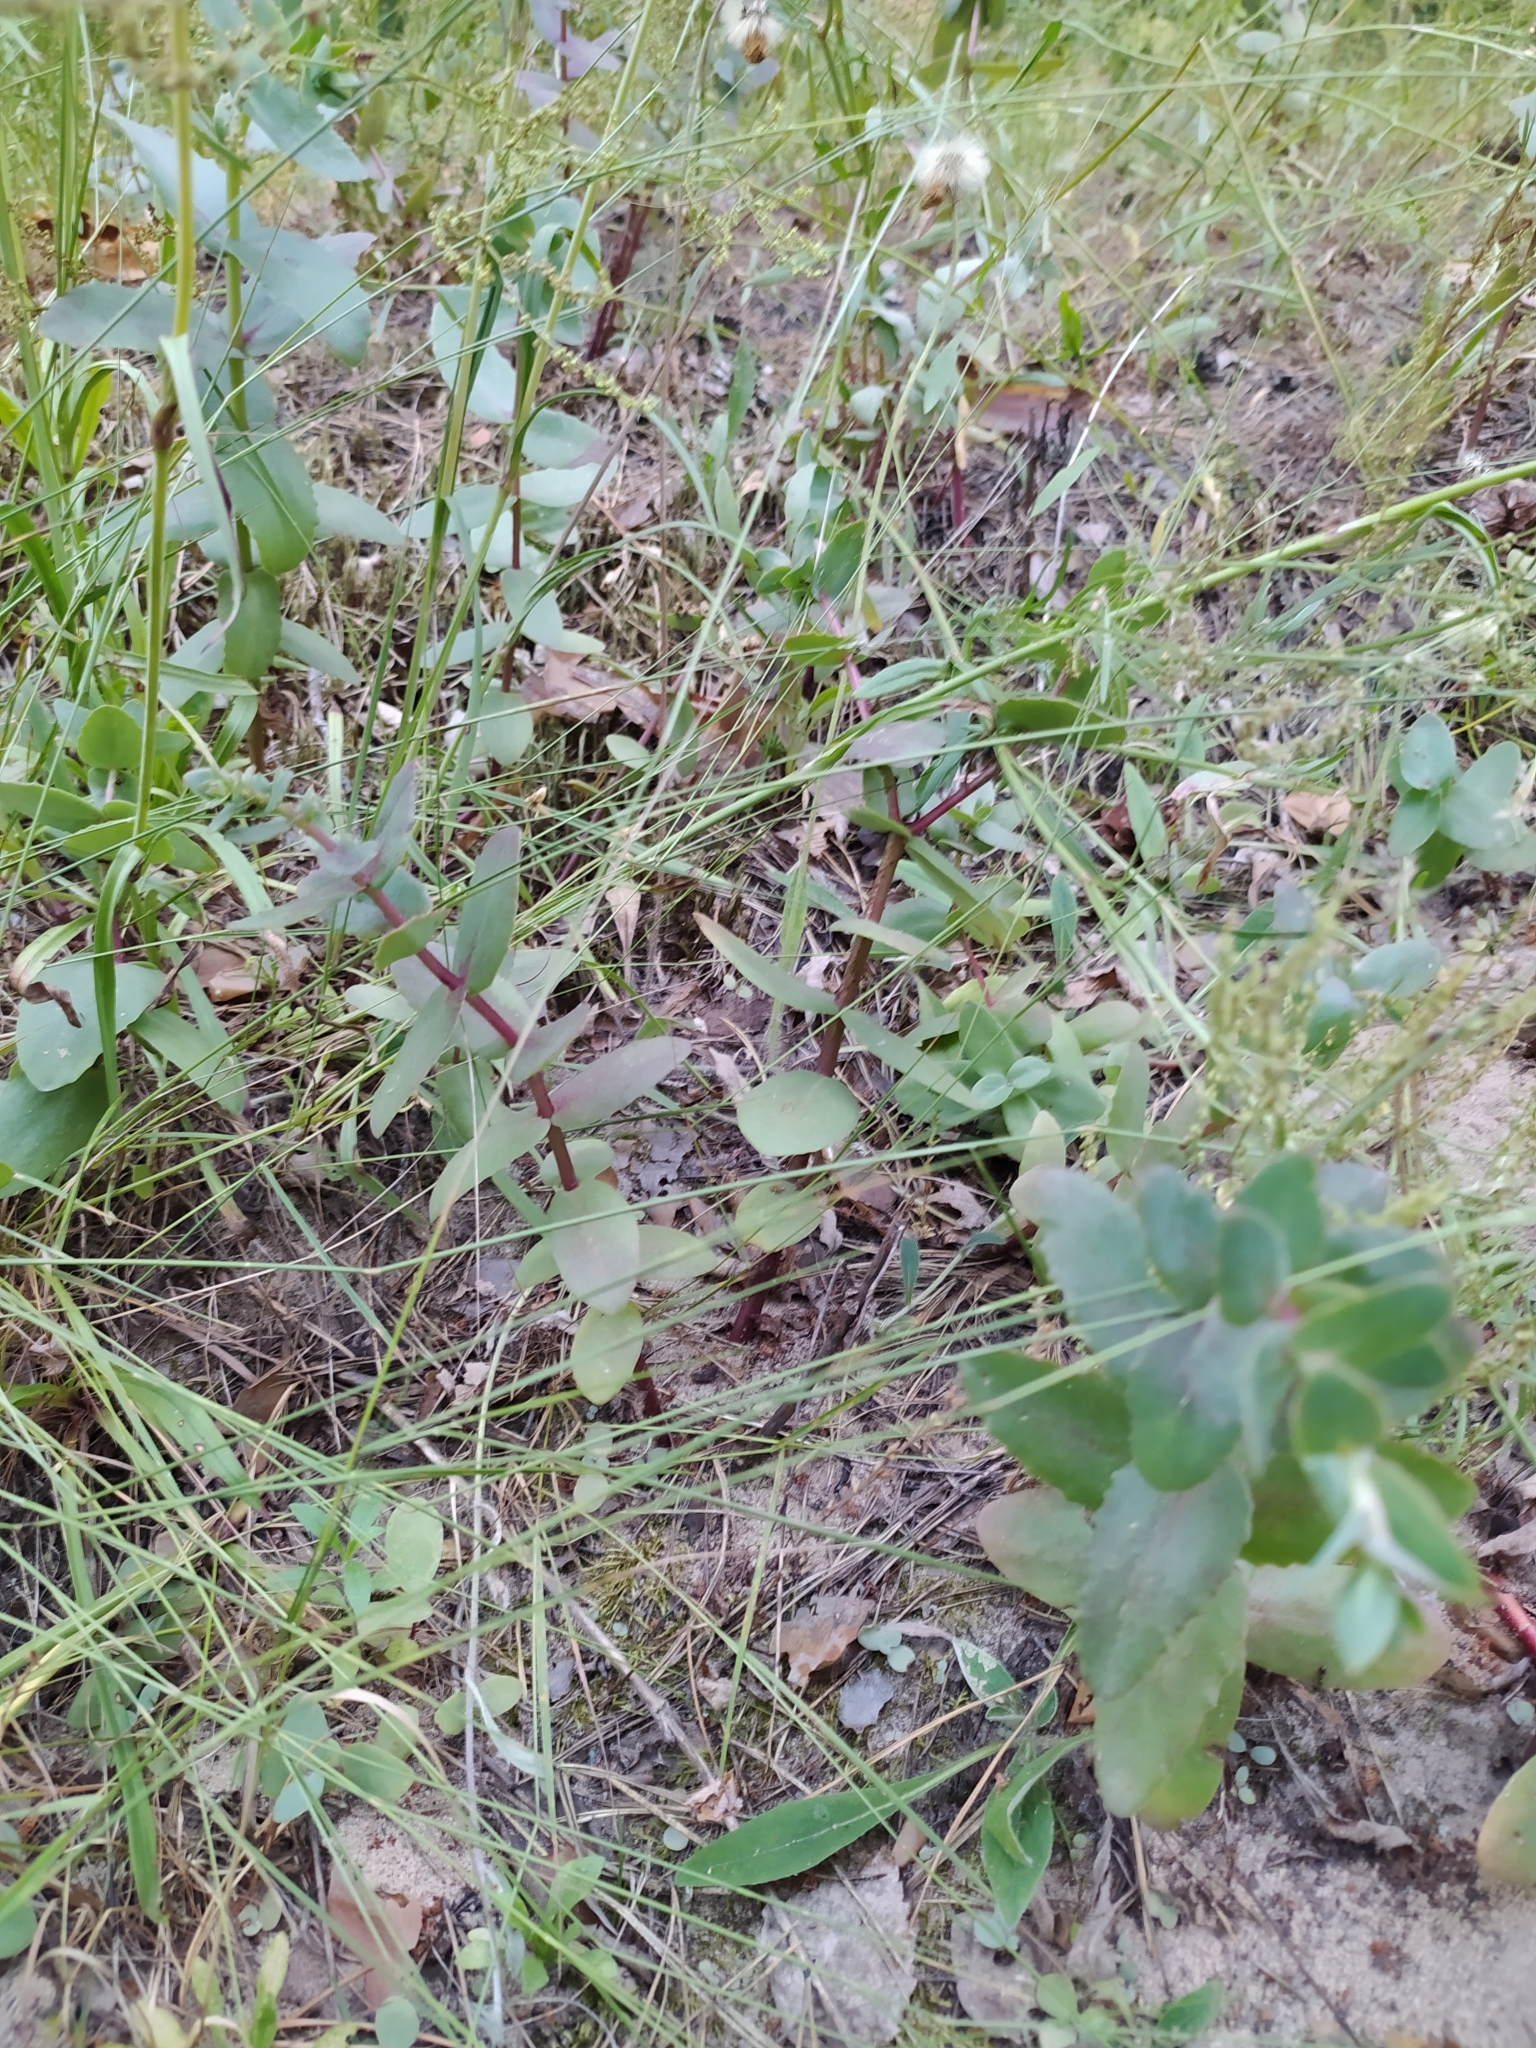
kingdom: Plantae
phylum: Tracheophyta
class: Magnoliopsida
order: Saxifragales
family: Crassulaceae
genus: Hylotelephium
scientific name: Hylotelephium maximum
